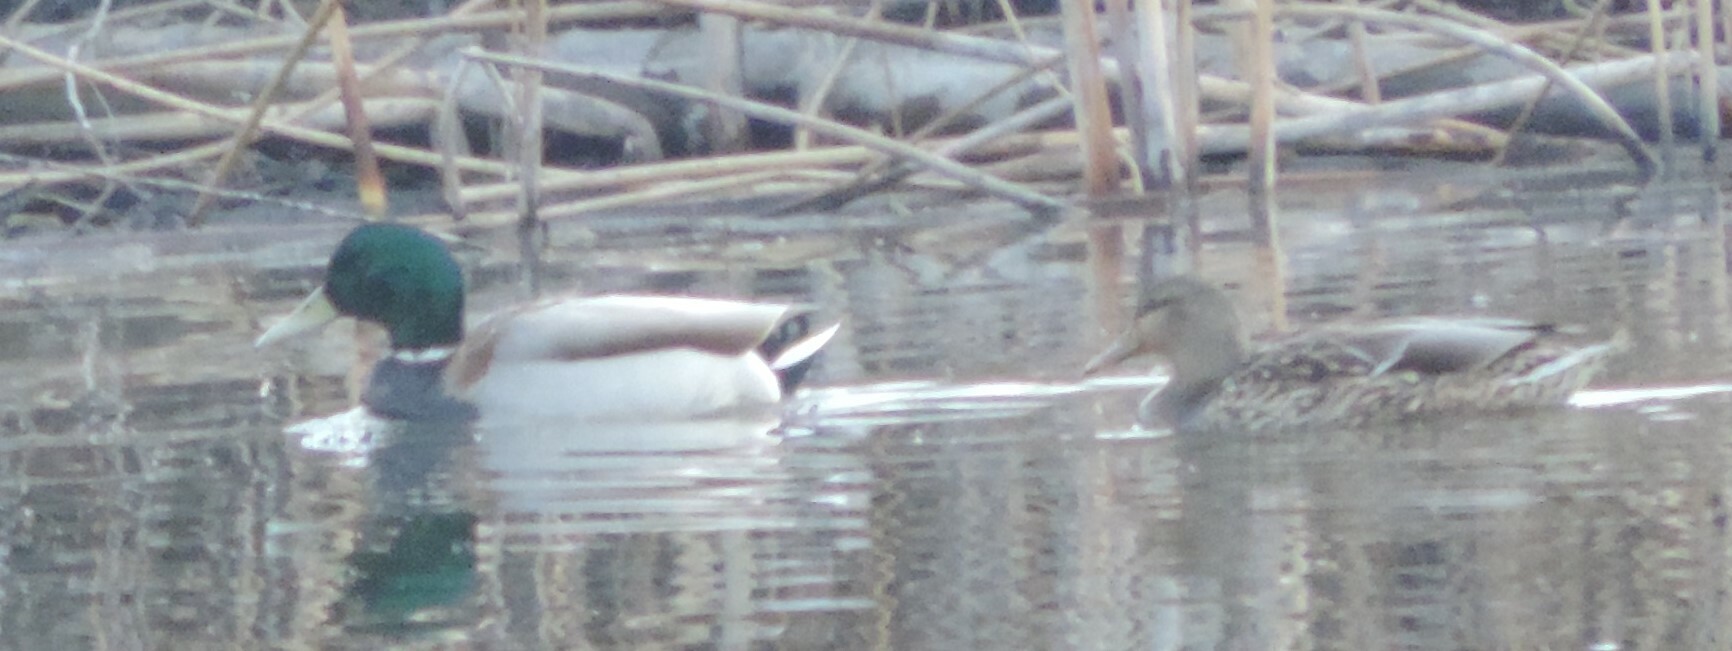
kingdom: Animalia
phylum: Chordata
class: Aves
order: Anseriformes
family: Anatidae
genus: Anas
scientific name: Anas platyrhynchos
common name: Mallard
